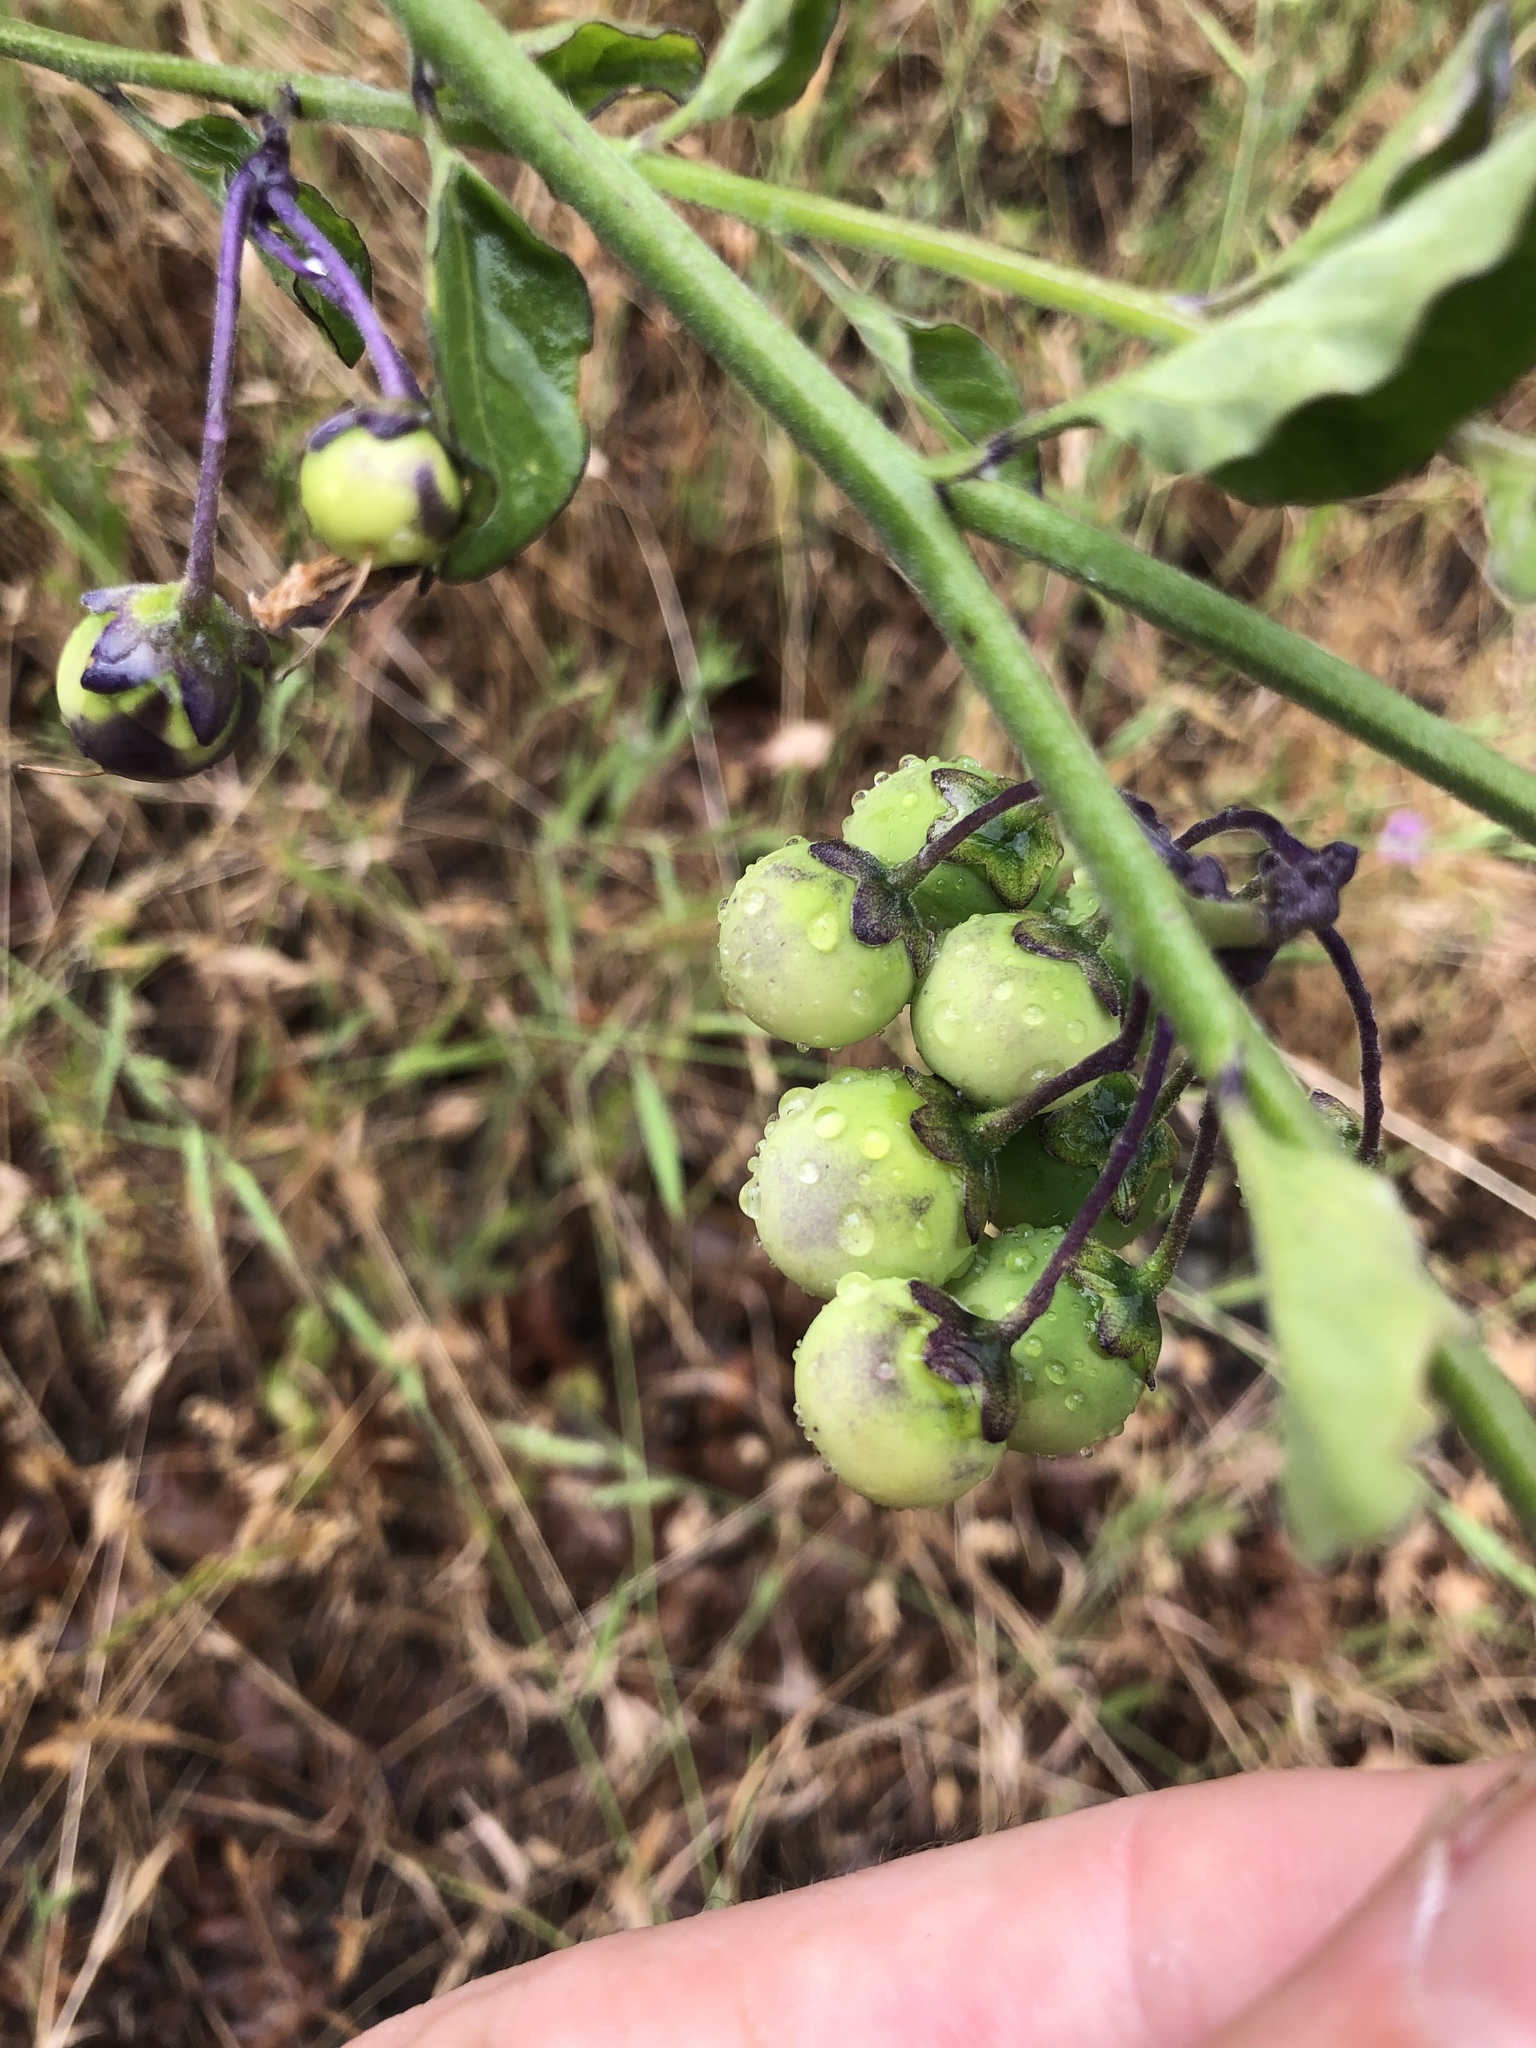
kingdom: Plantae
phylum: Tracheophyta
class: Magnoliopsida
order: Solanales
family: Solanaceae
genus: Solanum
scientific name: Solanum umbelliferum
